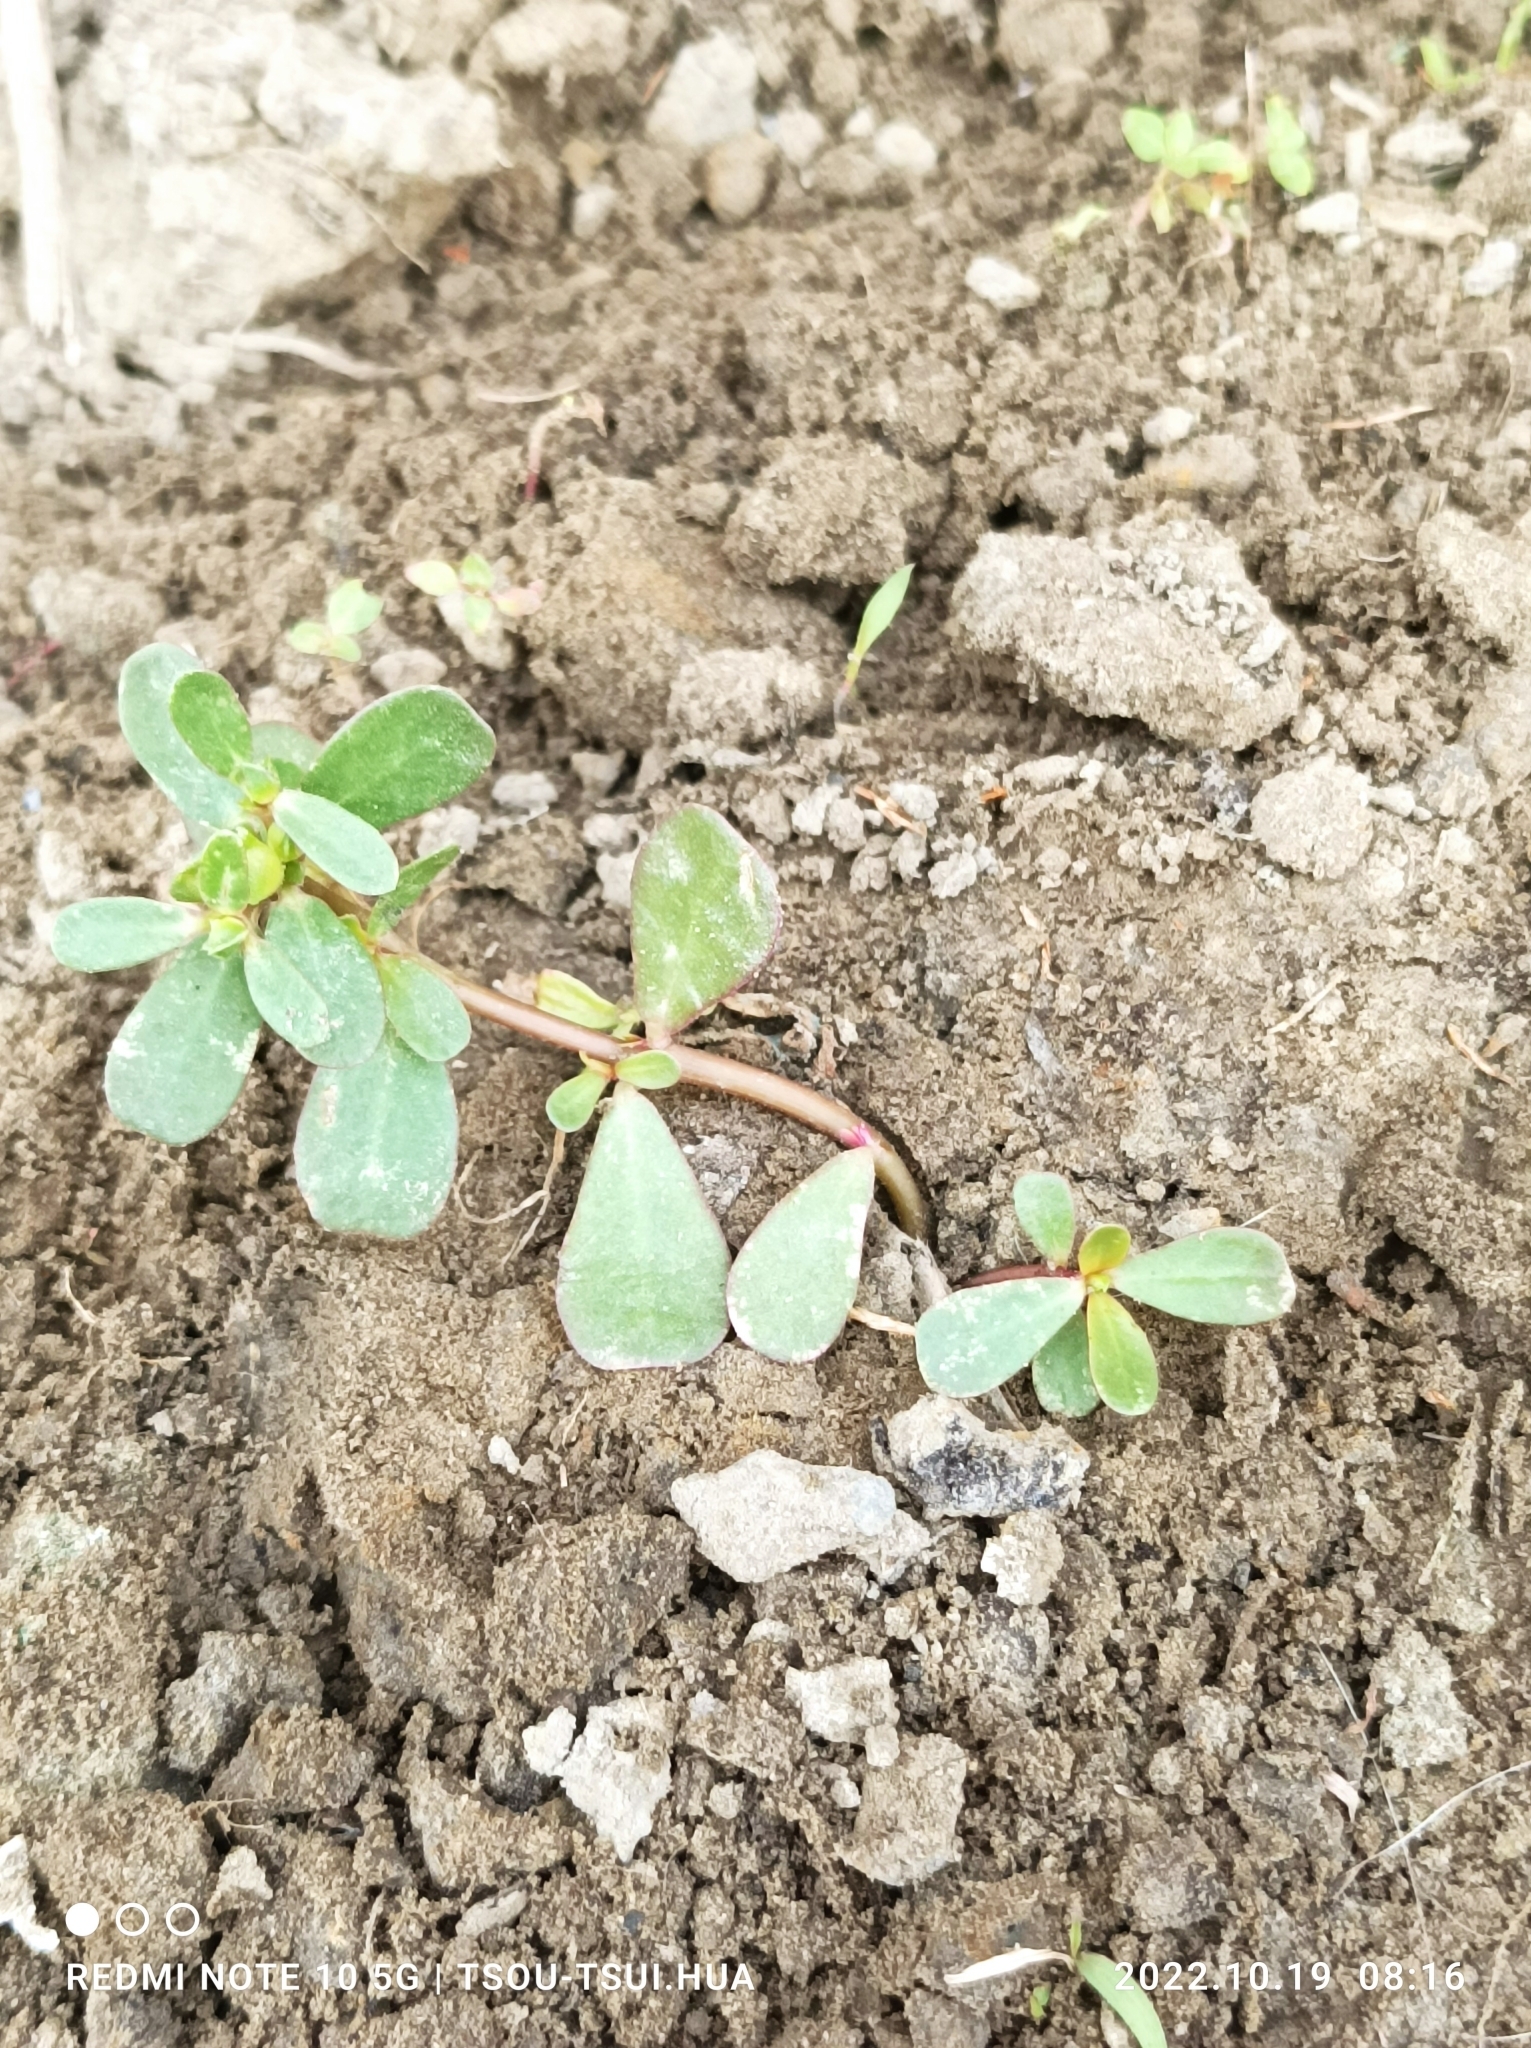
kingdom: Plantae
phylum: Tracheophyta
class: Magnoliopsida
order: Caryophyllales
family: Portulacaceae
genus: Portulaca
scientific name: Portulaca oleracea
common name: Common purslane
